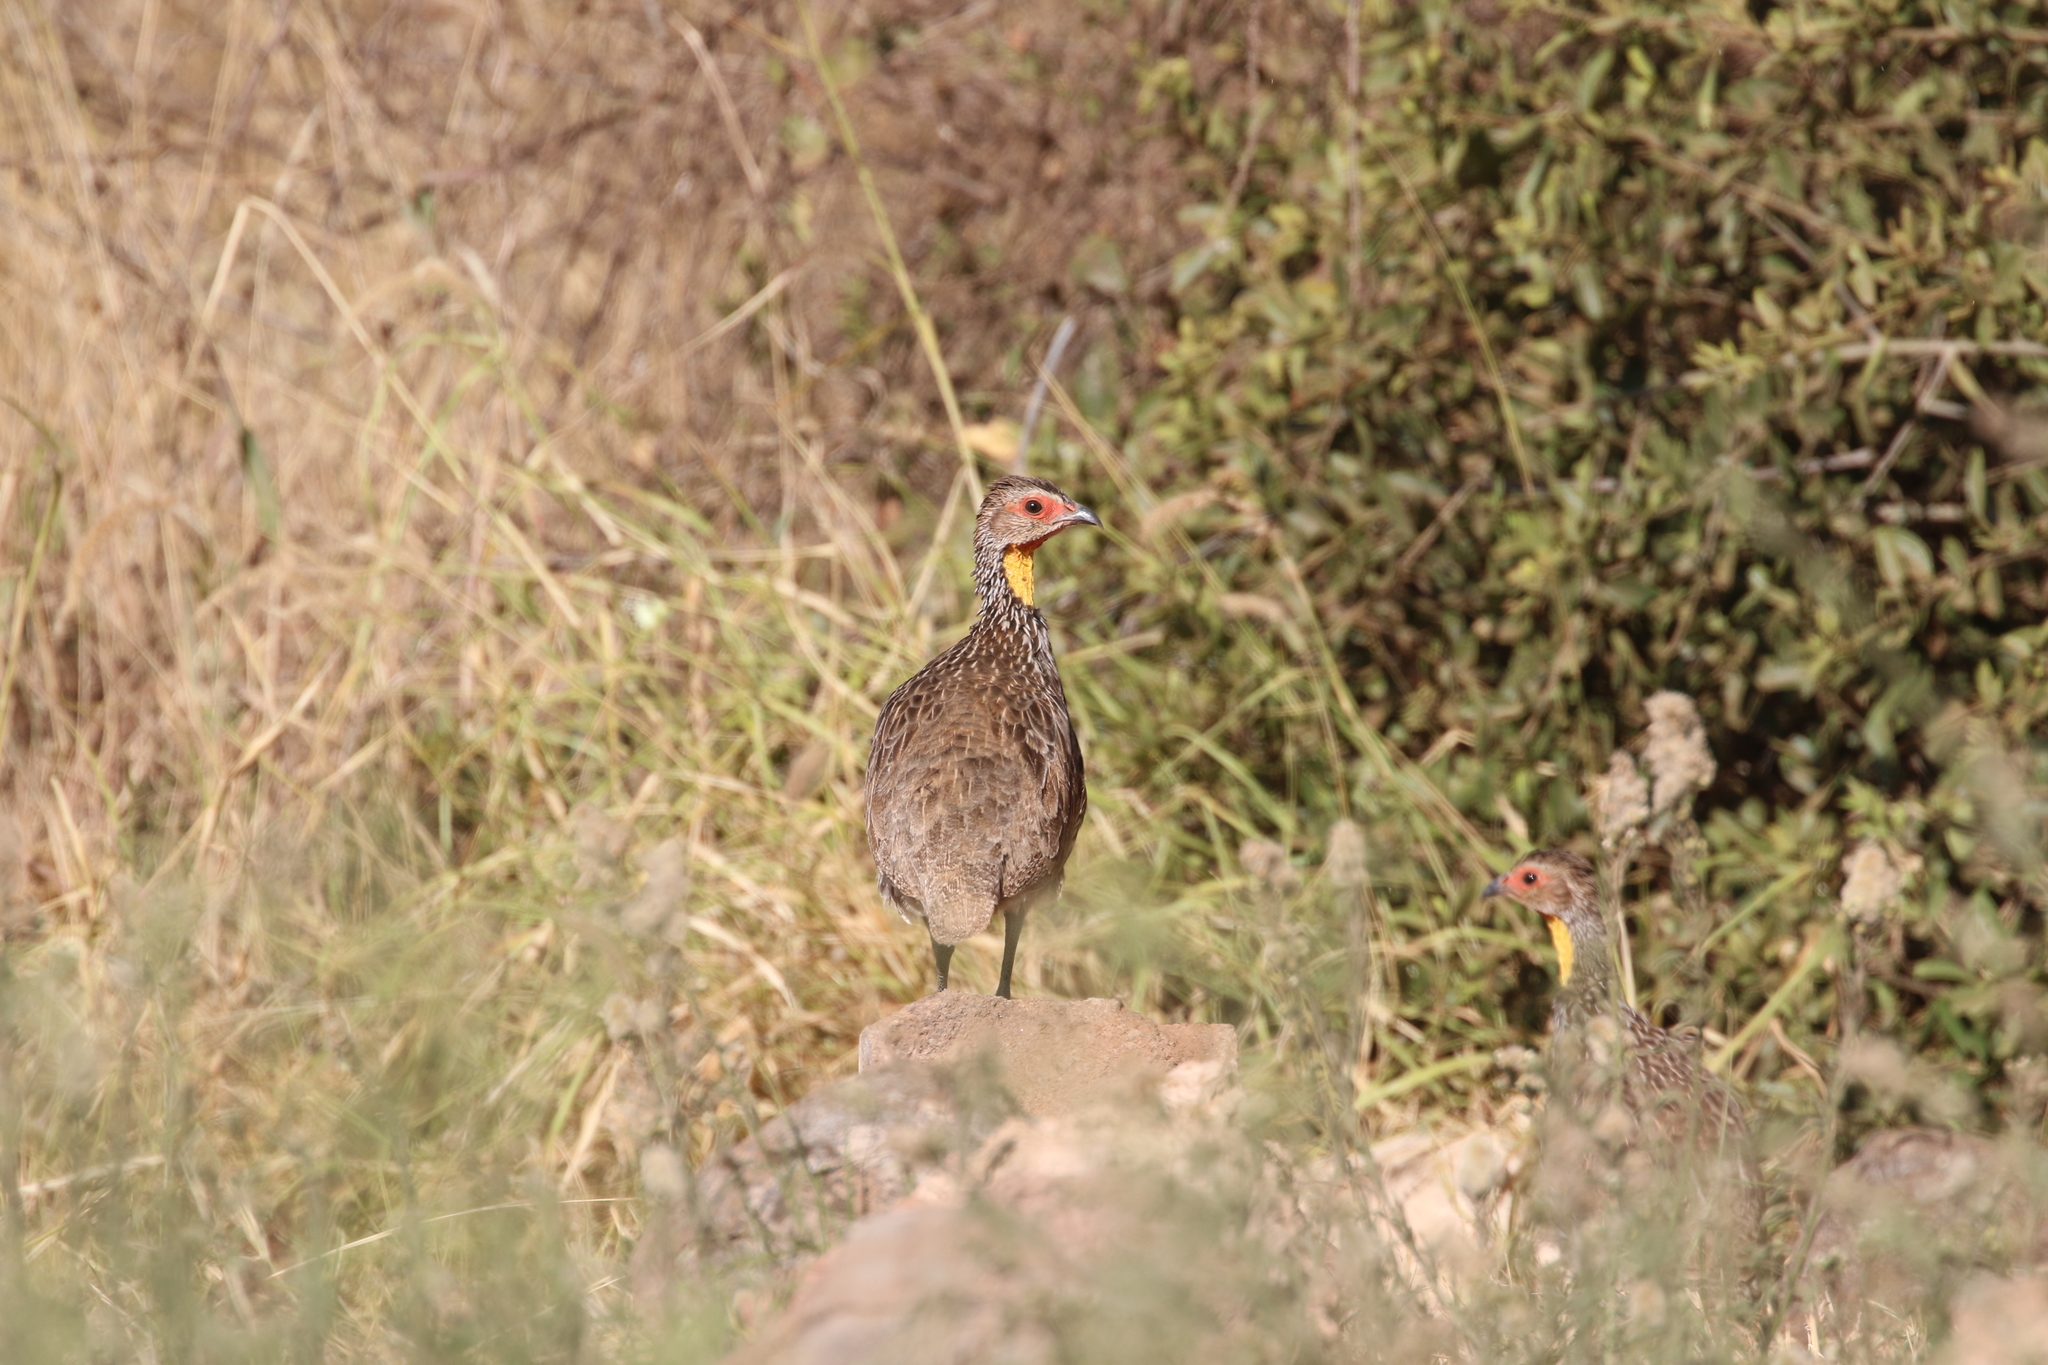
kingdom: Animalia
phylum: Chordata
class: Aves
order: Galliformes
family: Phasianidae
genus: Pternistis
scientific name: Pternistis leucoscepus
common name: Yellow-necked spurfowl
